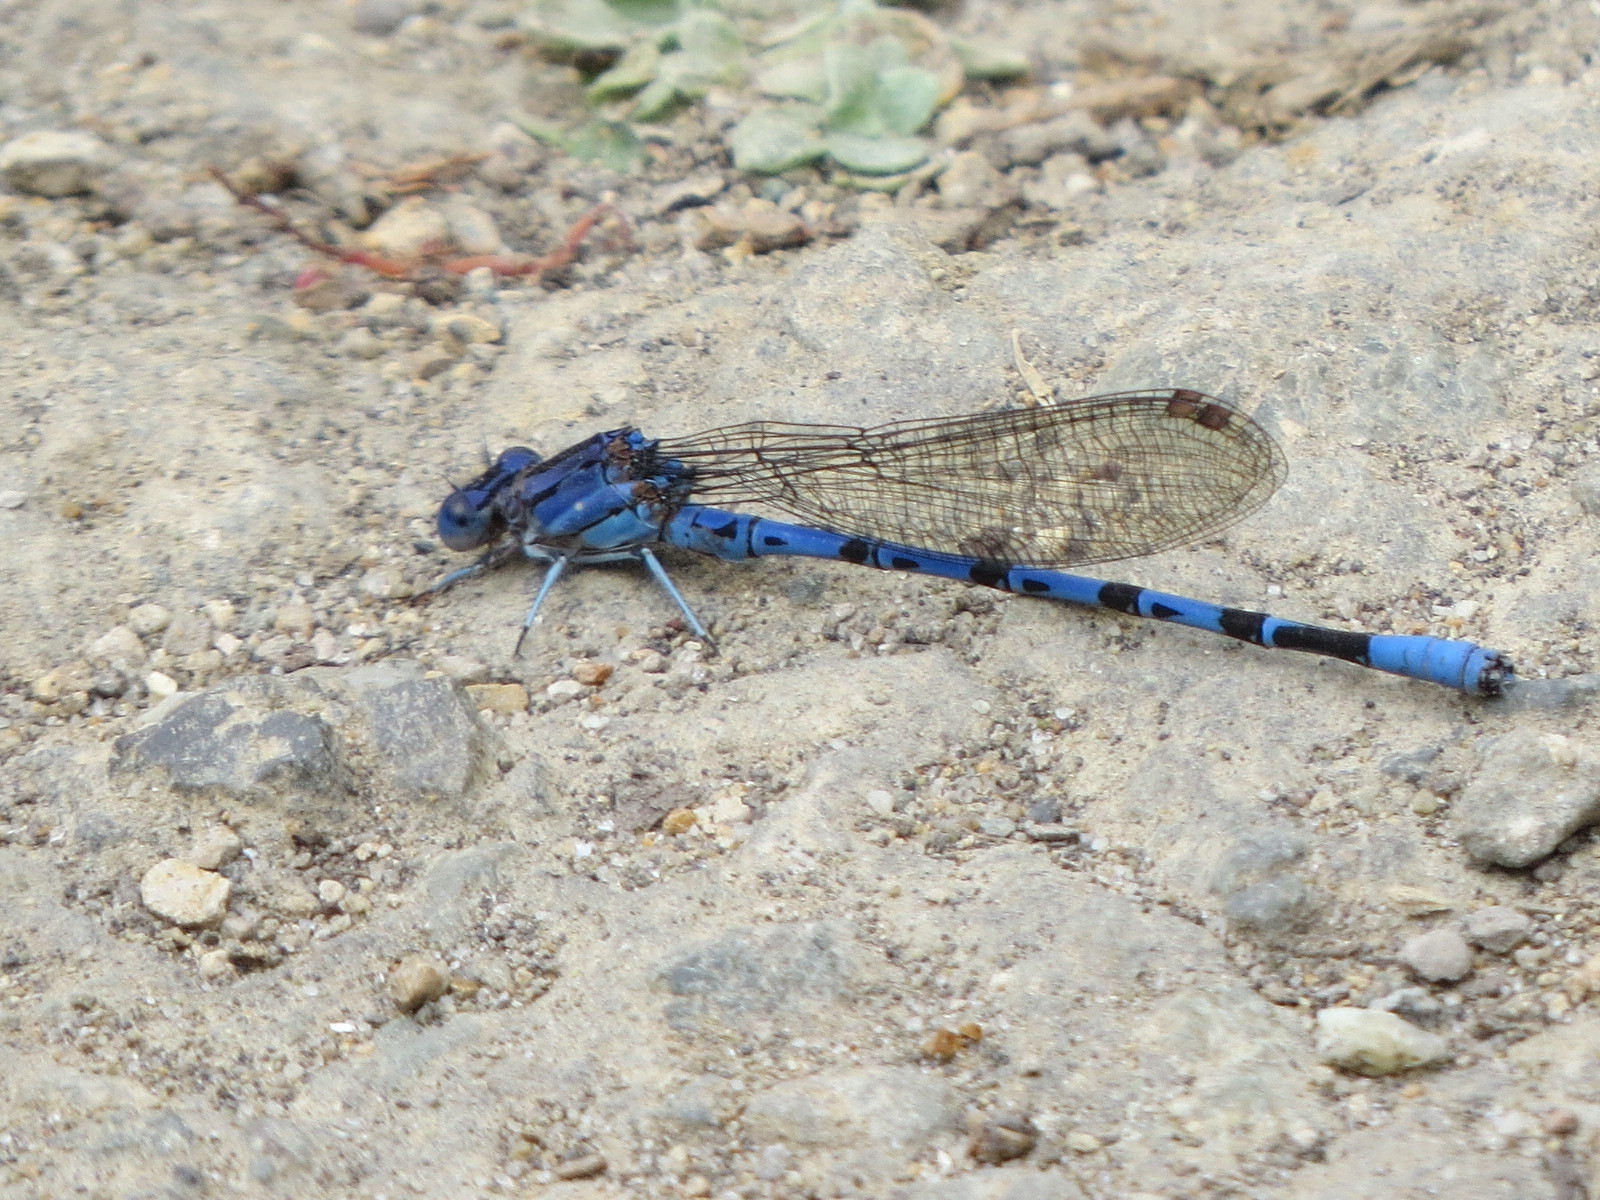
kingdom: Animalia
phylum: Arthropoda
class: Insecta
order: Odonata
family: Coenagrionidae
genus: Argia
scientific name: Argia vivida
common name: Vivid dancer
